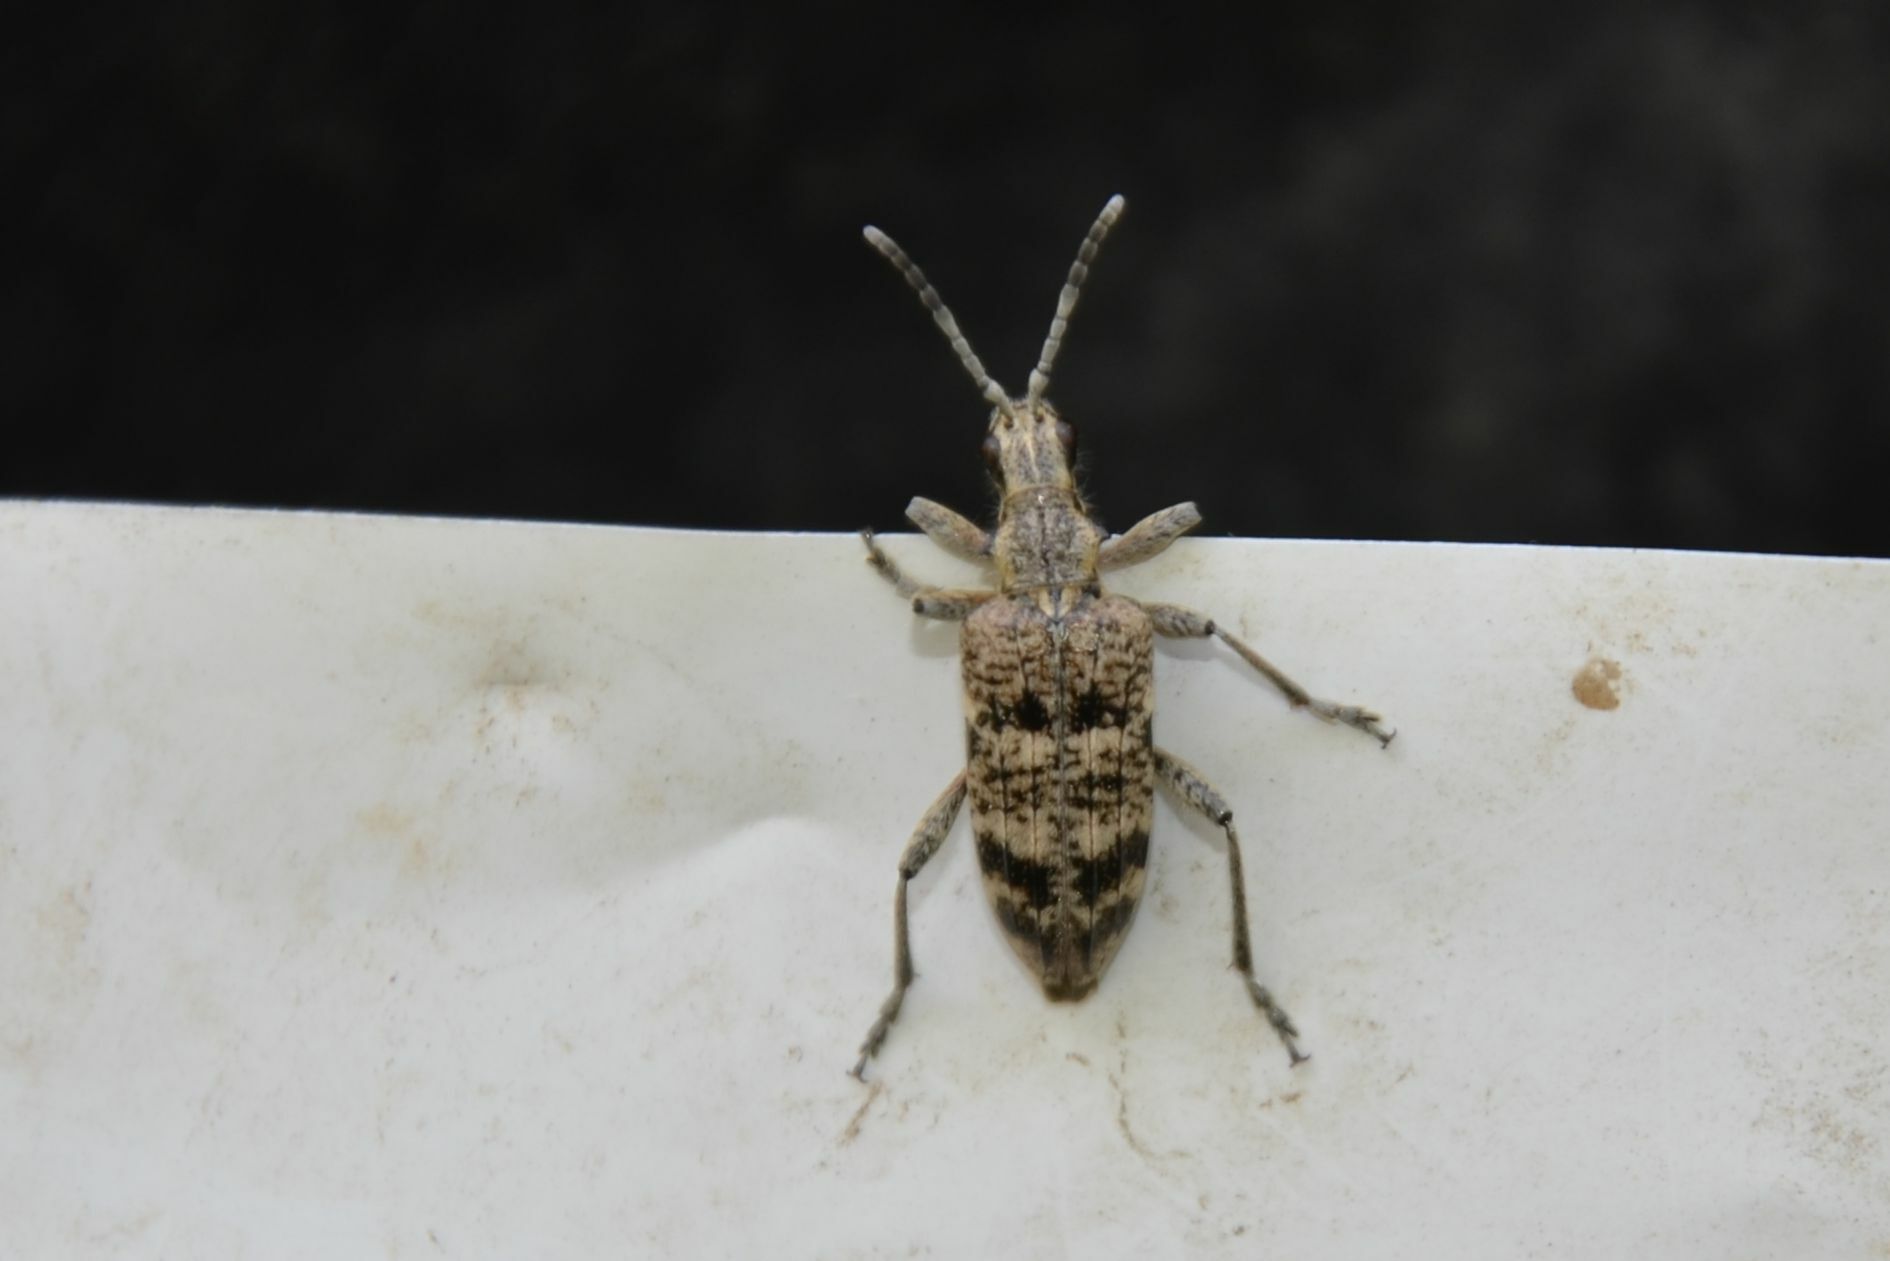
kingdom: Animalia
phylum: Arthropoda
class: Insecta
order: Coleoptera
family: Cerambycidae
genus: Rhagium
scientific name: Rhagium inquisitor
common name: Ribbed pine borer
